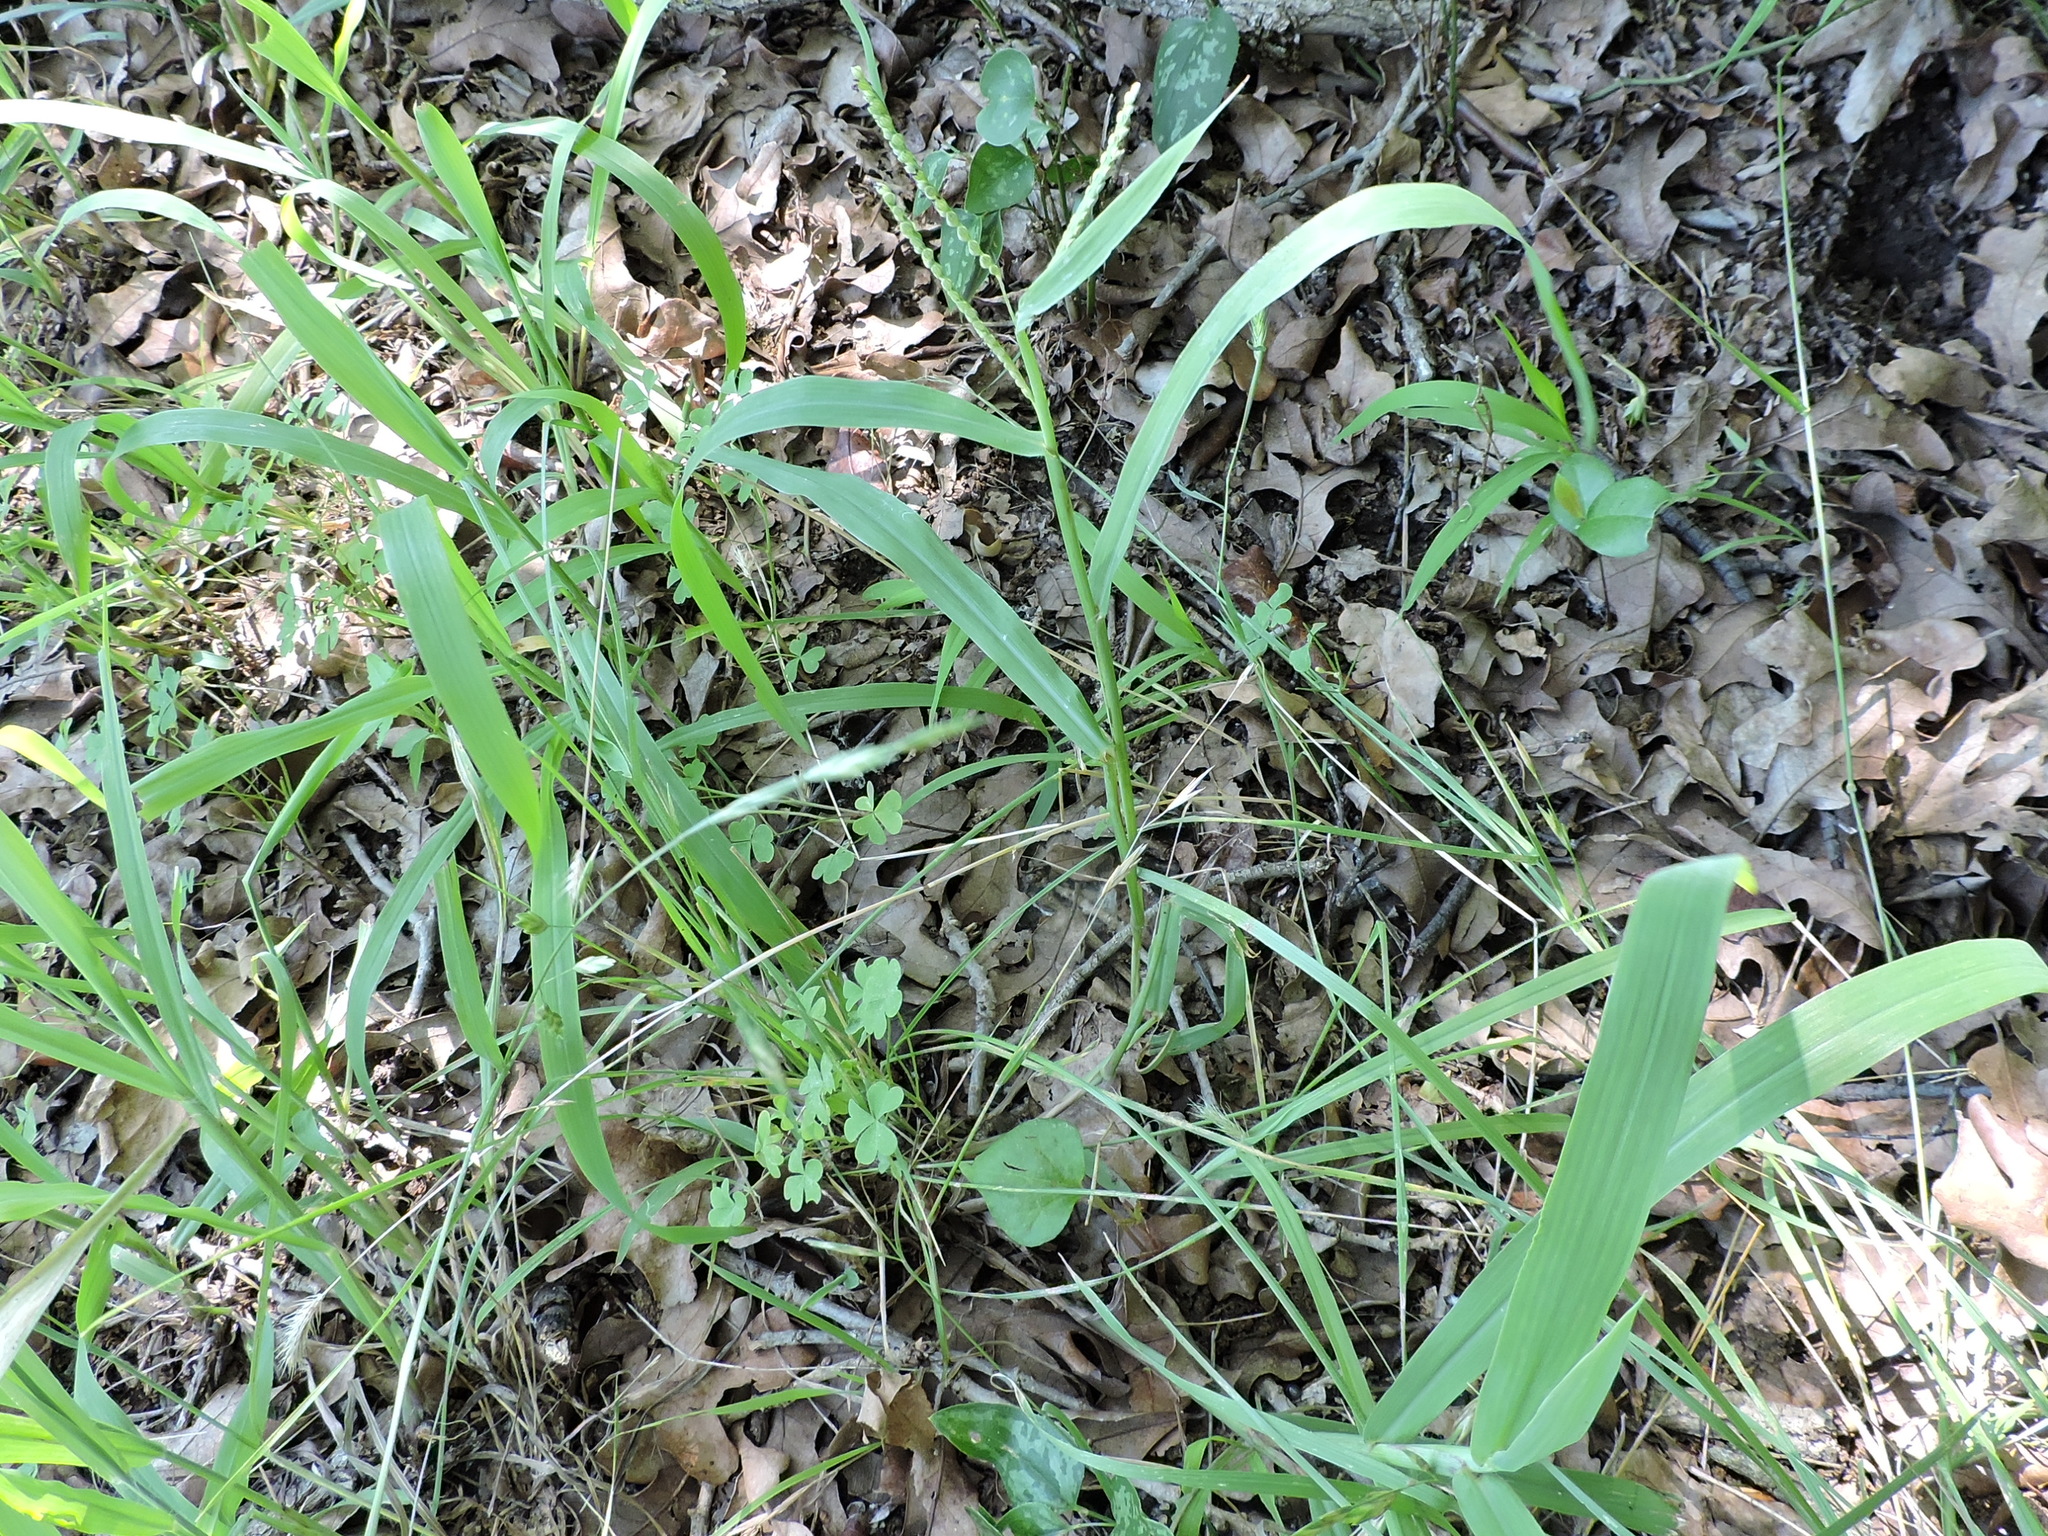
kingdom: Plantae
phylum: Tracheophyta
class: Liliopsida
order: Poales
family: Poaceae
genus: Paspalum
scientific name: Paspalum dilatatum
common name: Dallisgrass
